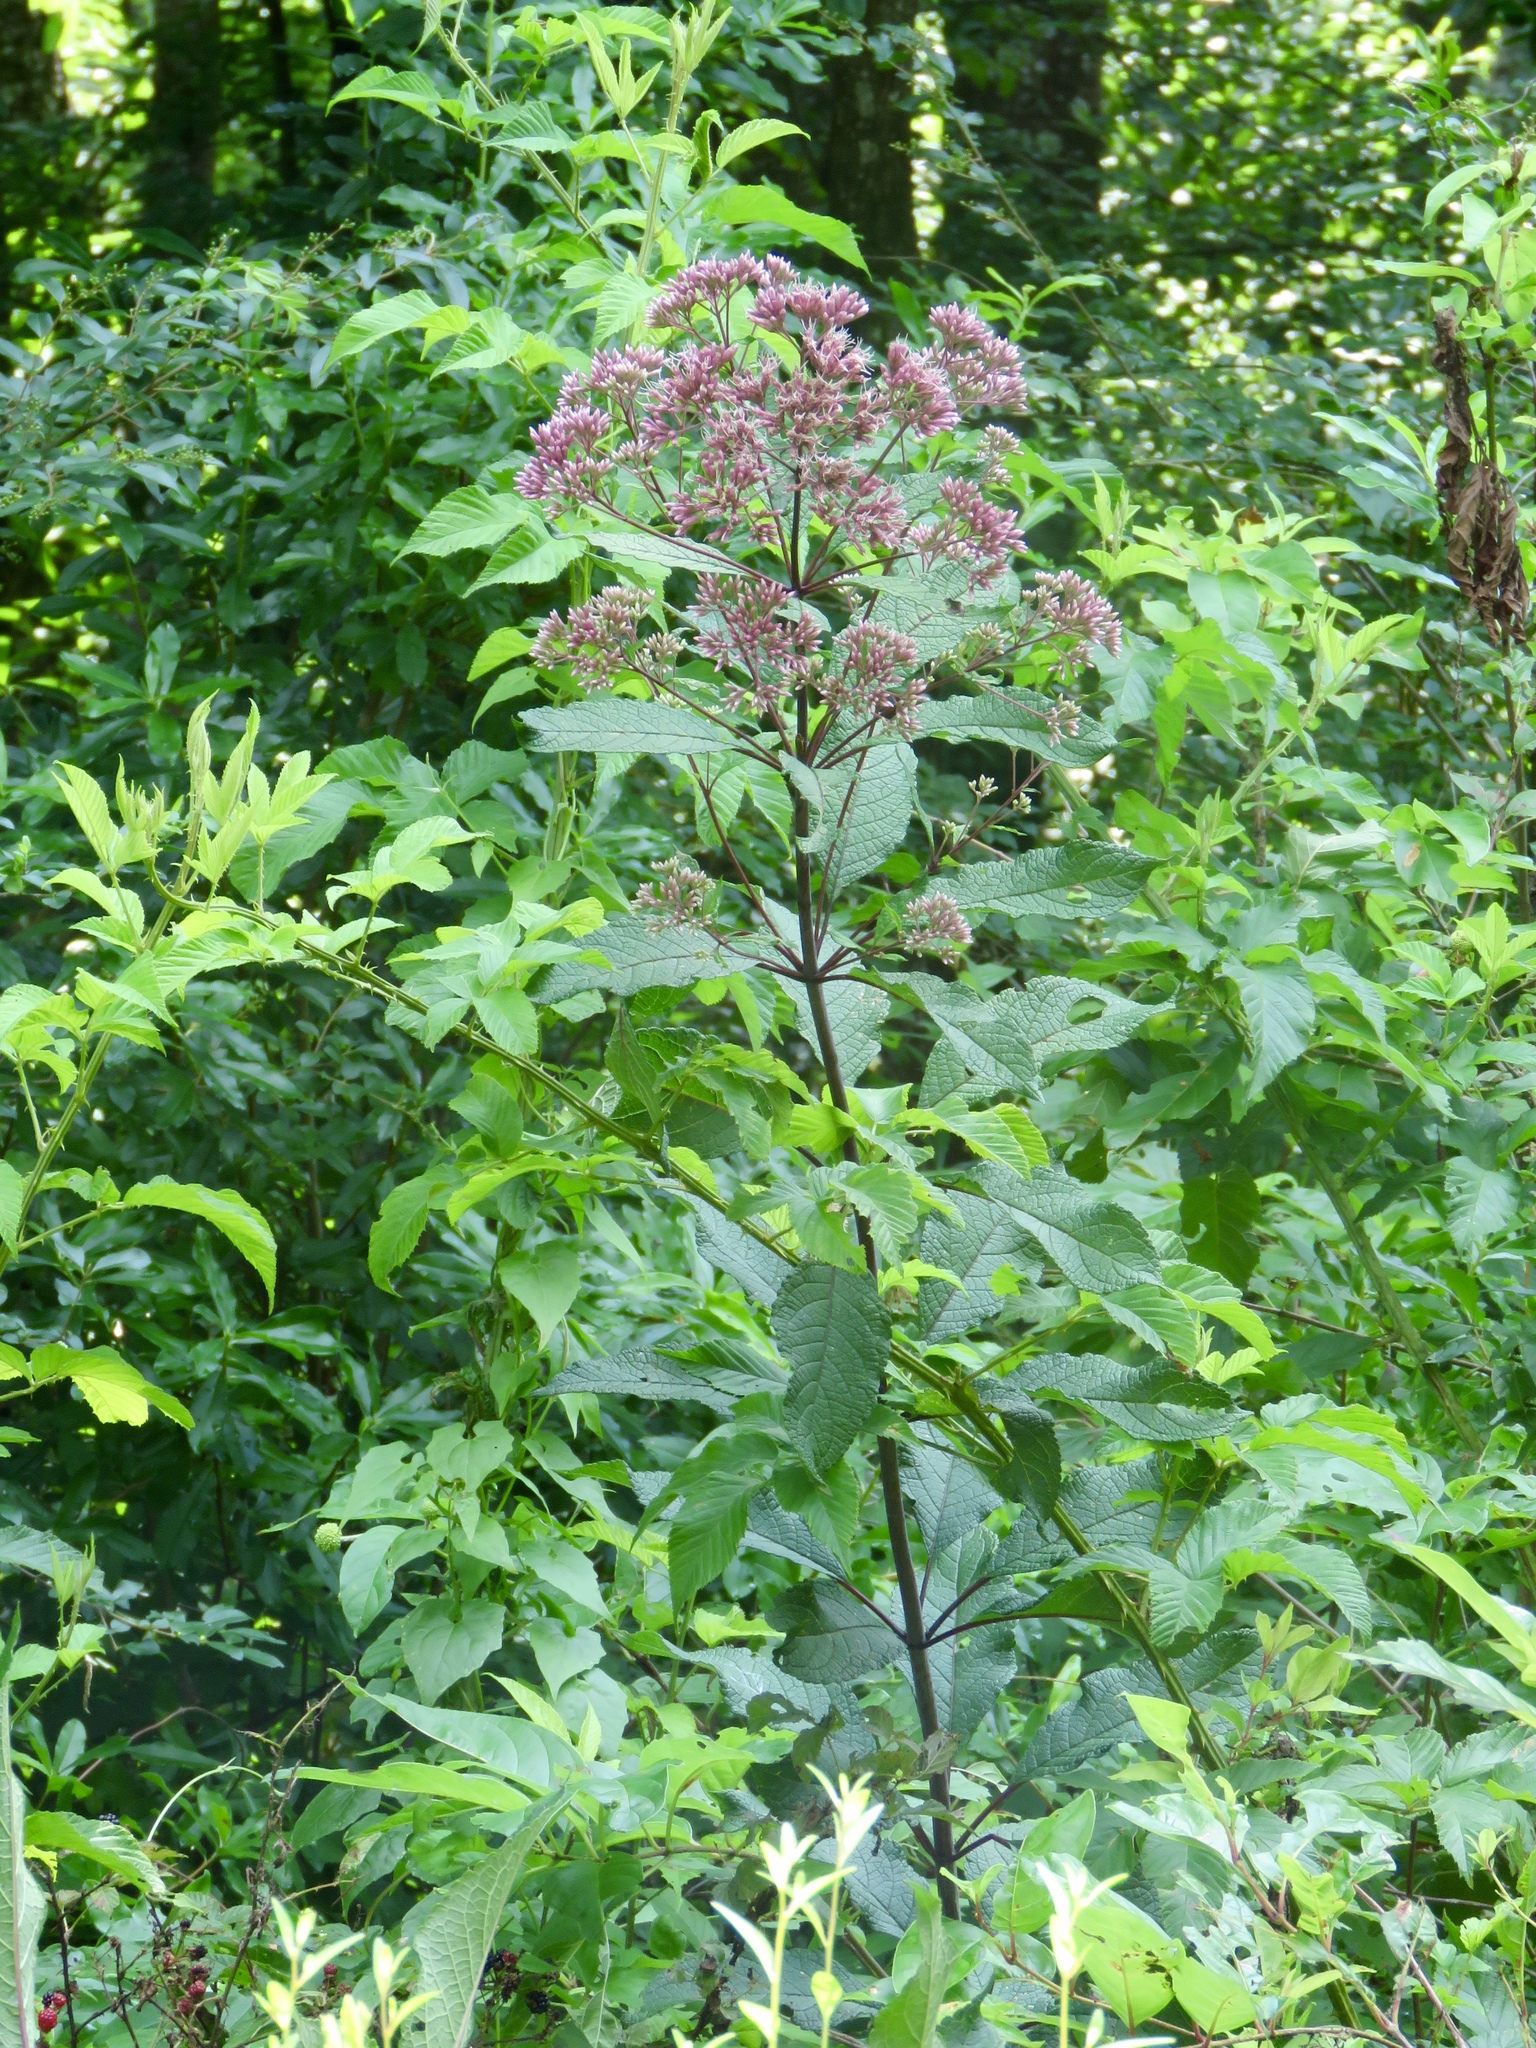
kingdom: Plantae
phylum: Tracheophyta
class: Magnoliopsida
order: Asterales
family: Asteraceae
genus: Eutrochium
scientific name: Eutrochium fistulosum
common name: Trumpetweed
